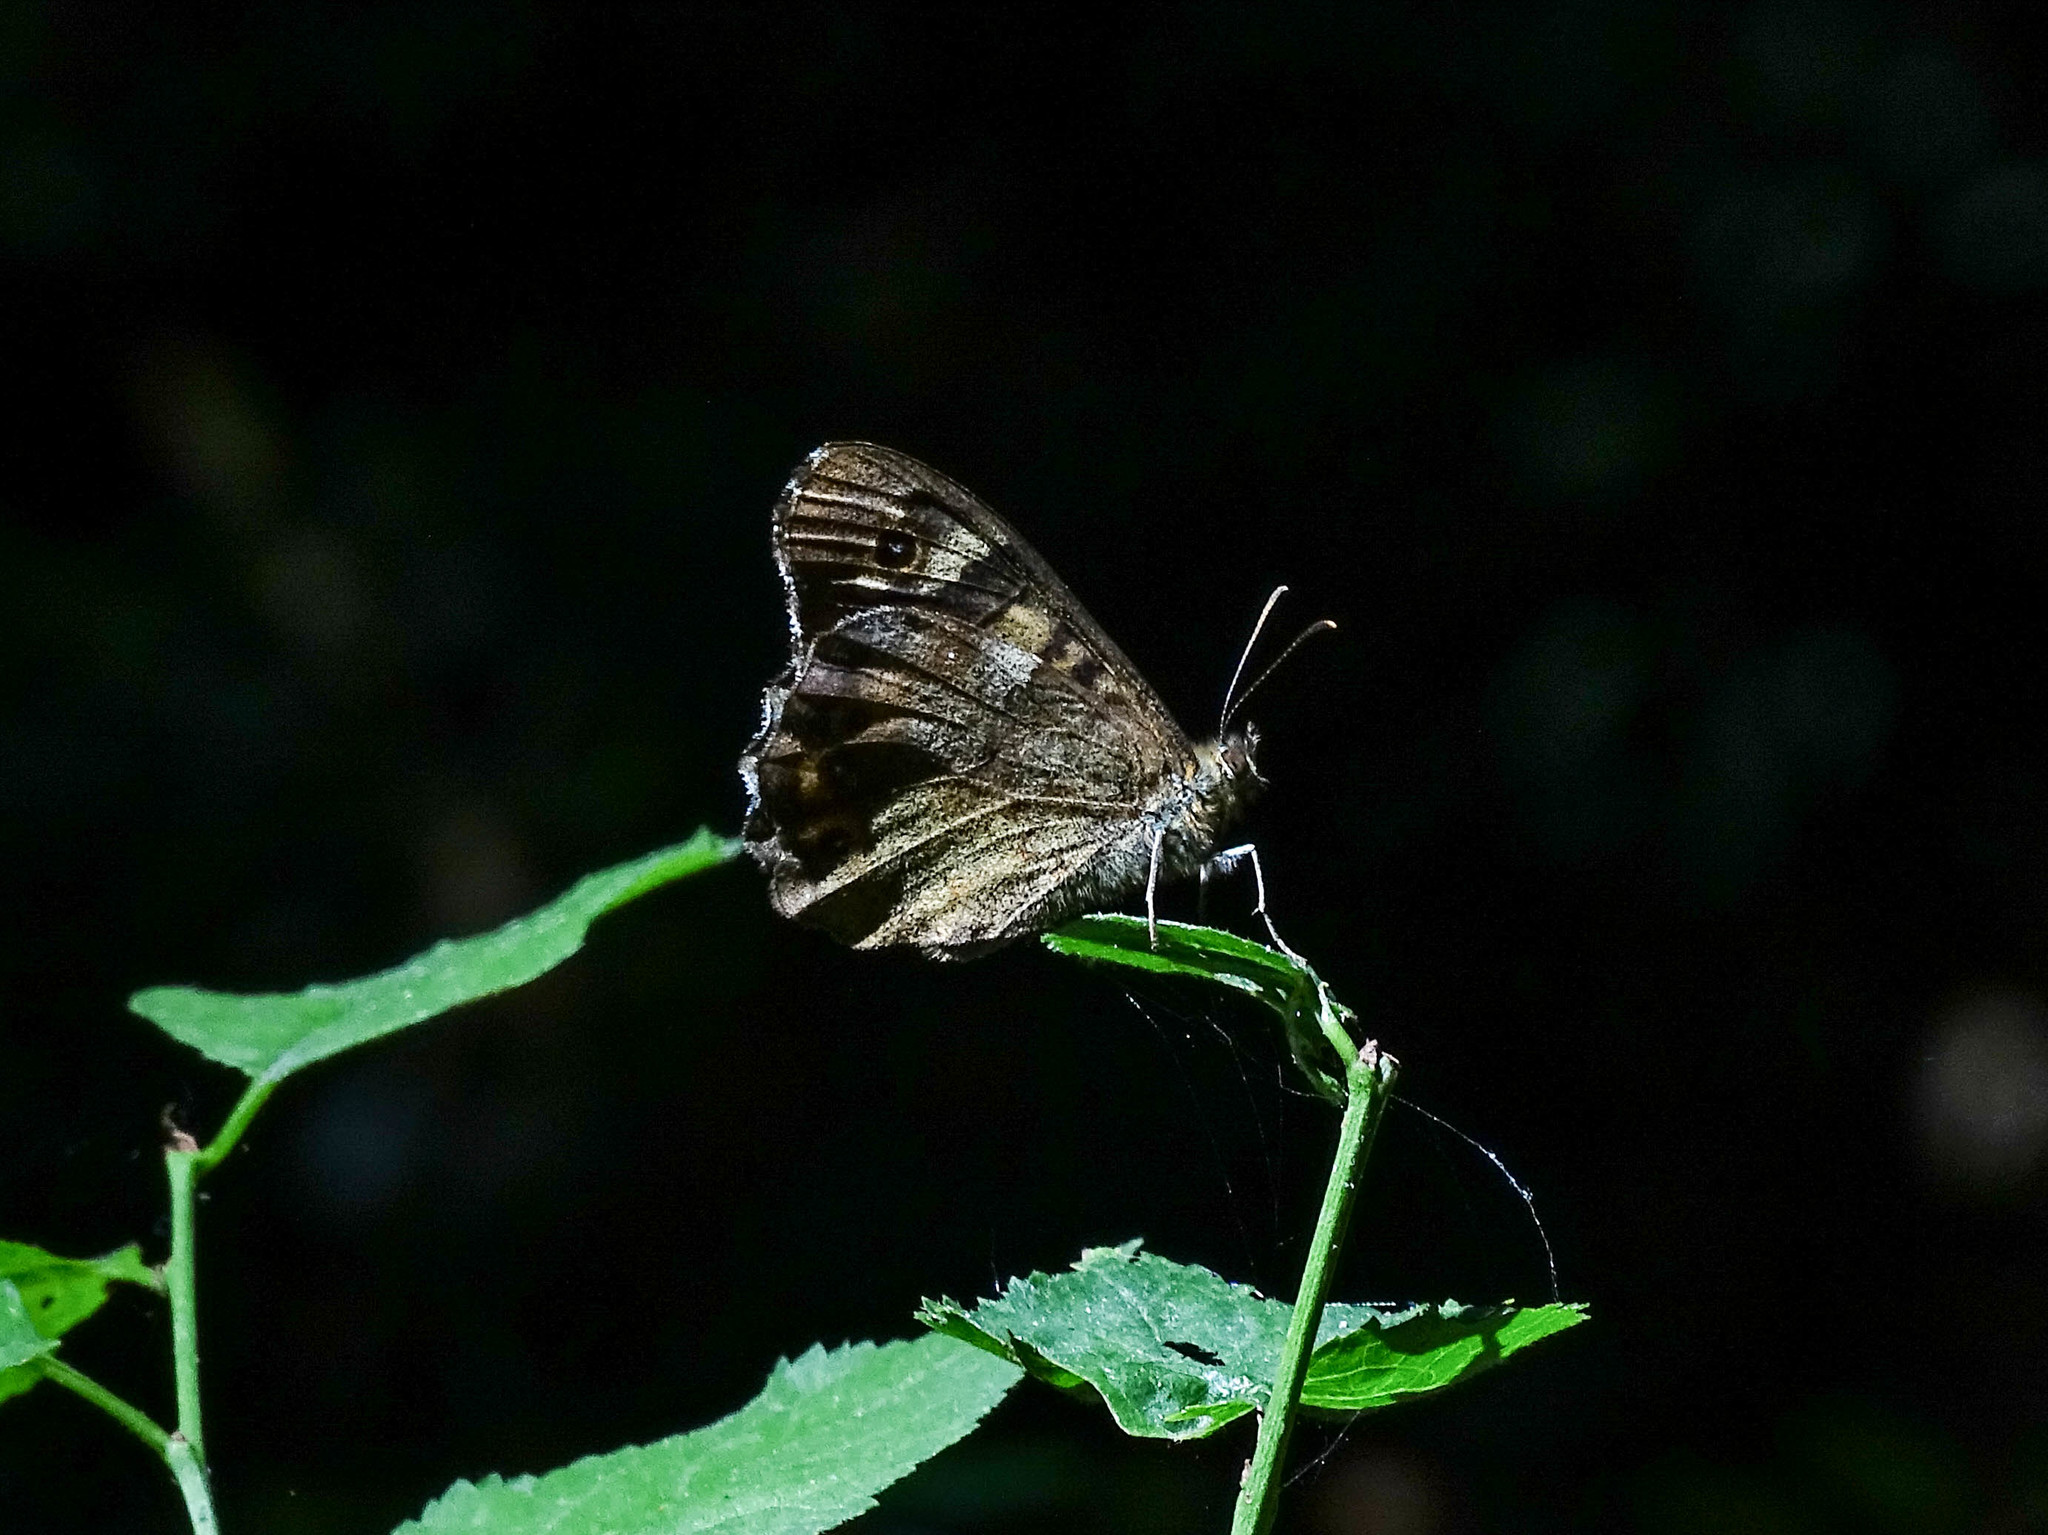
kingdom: Animalia
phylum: Arthropoda
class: Insecta
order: Lepidoptera
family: Nymphalidae
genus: Pararge
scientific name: Pararge aegeria
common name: Speckled wood
